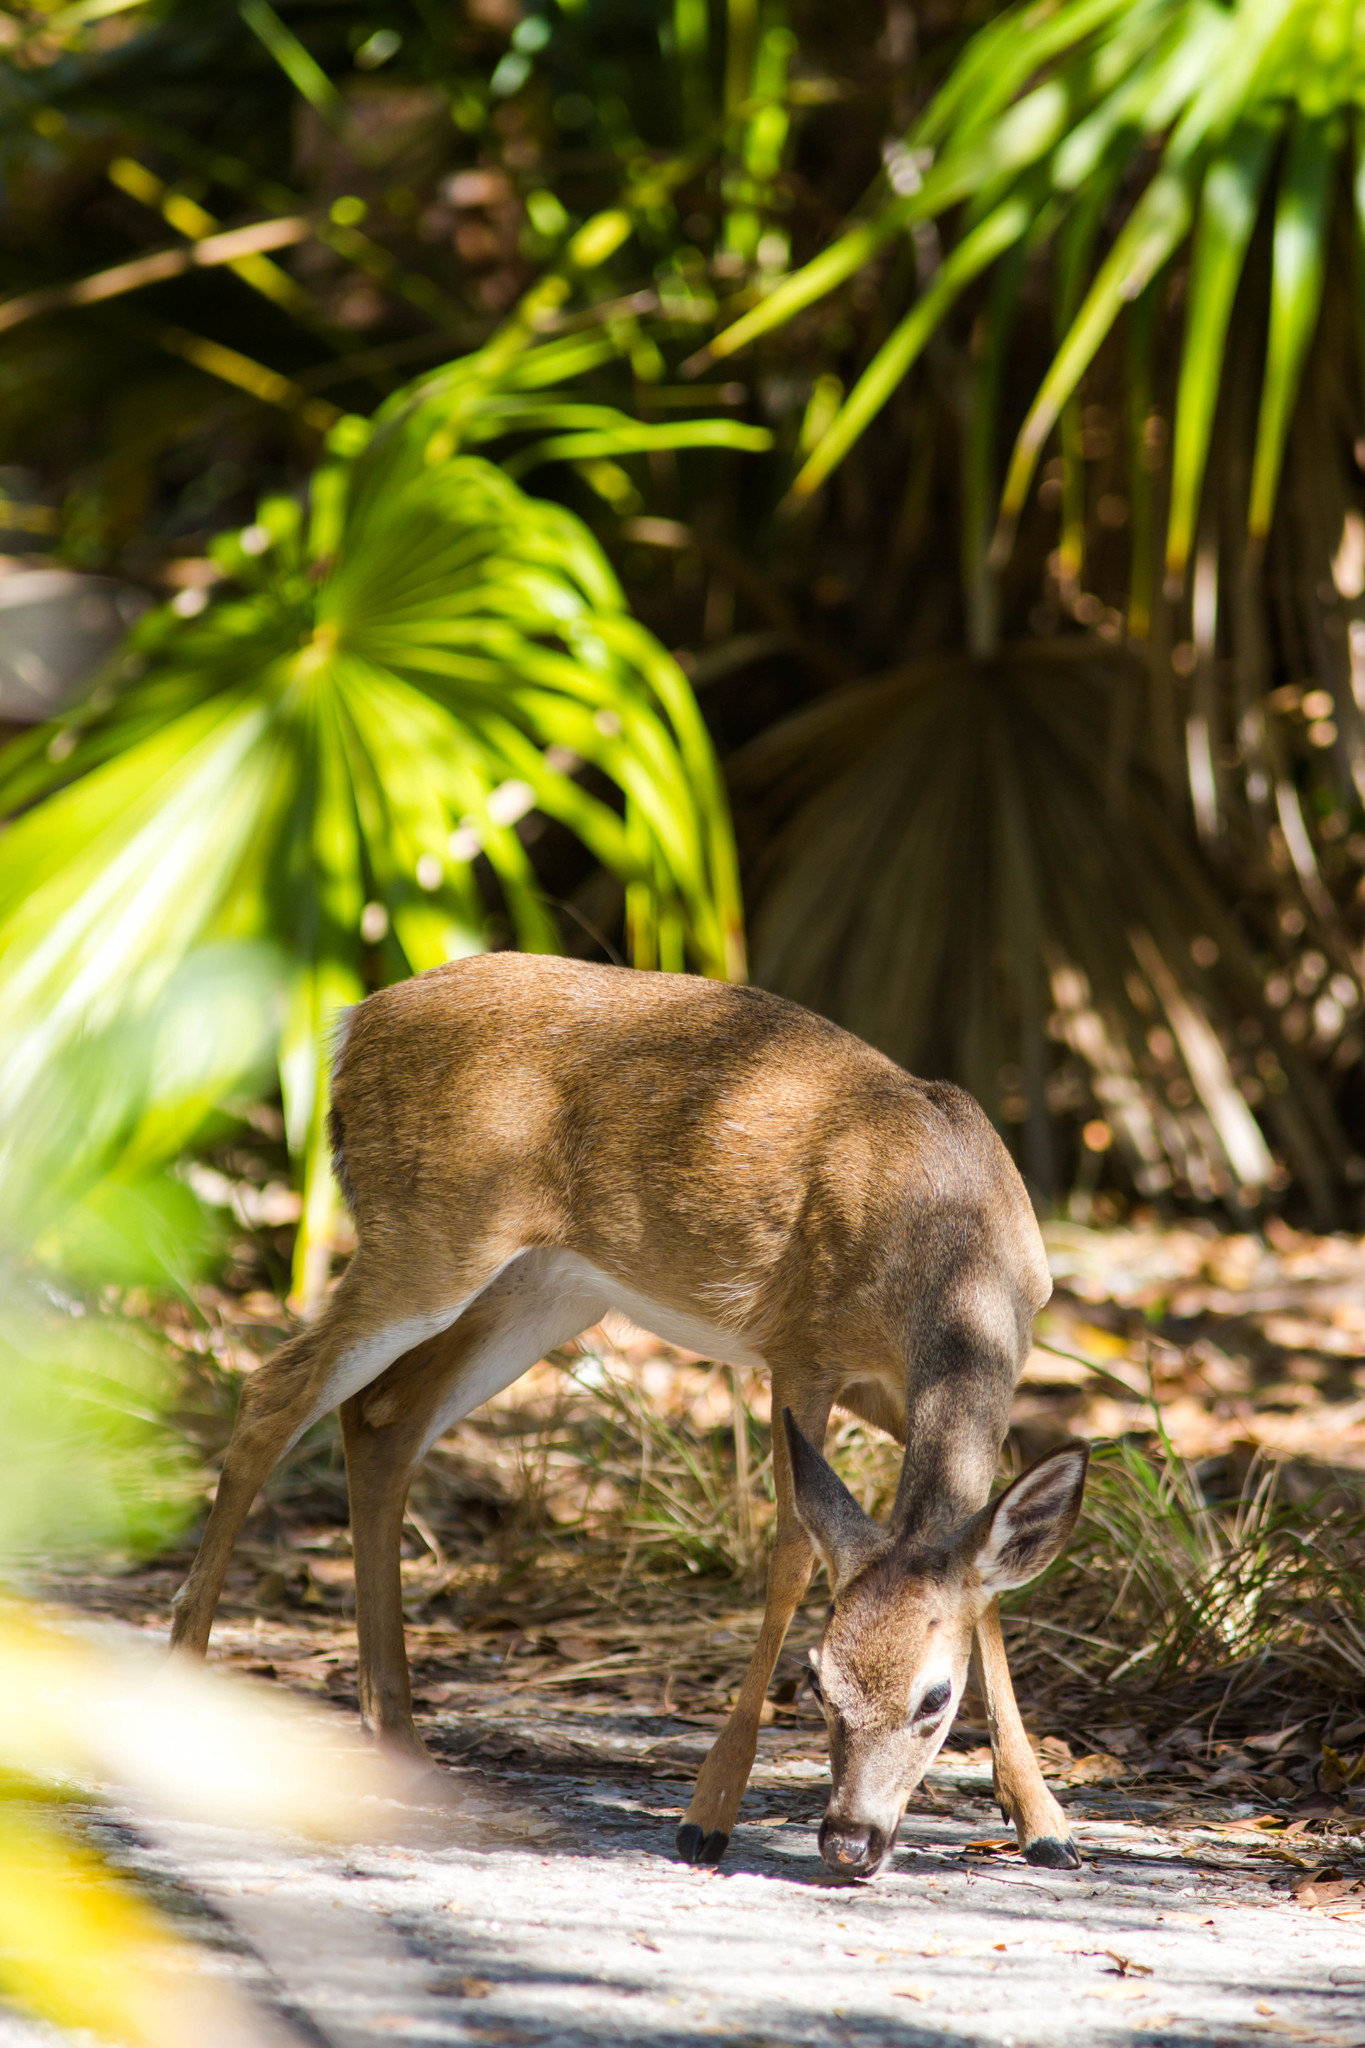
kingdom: Animalia
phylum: Chordata
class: Mammalia
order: Artiodactyla
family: Cervidae
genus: Odocoileus
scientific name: Odocoileus virginianus
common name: White-tailed deer
